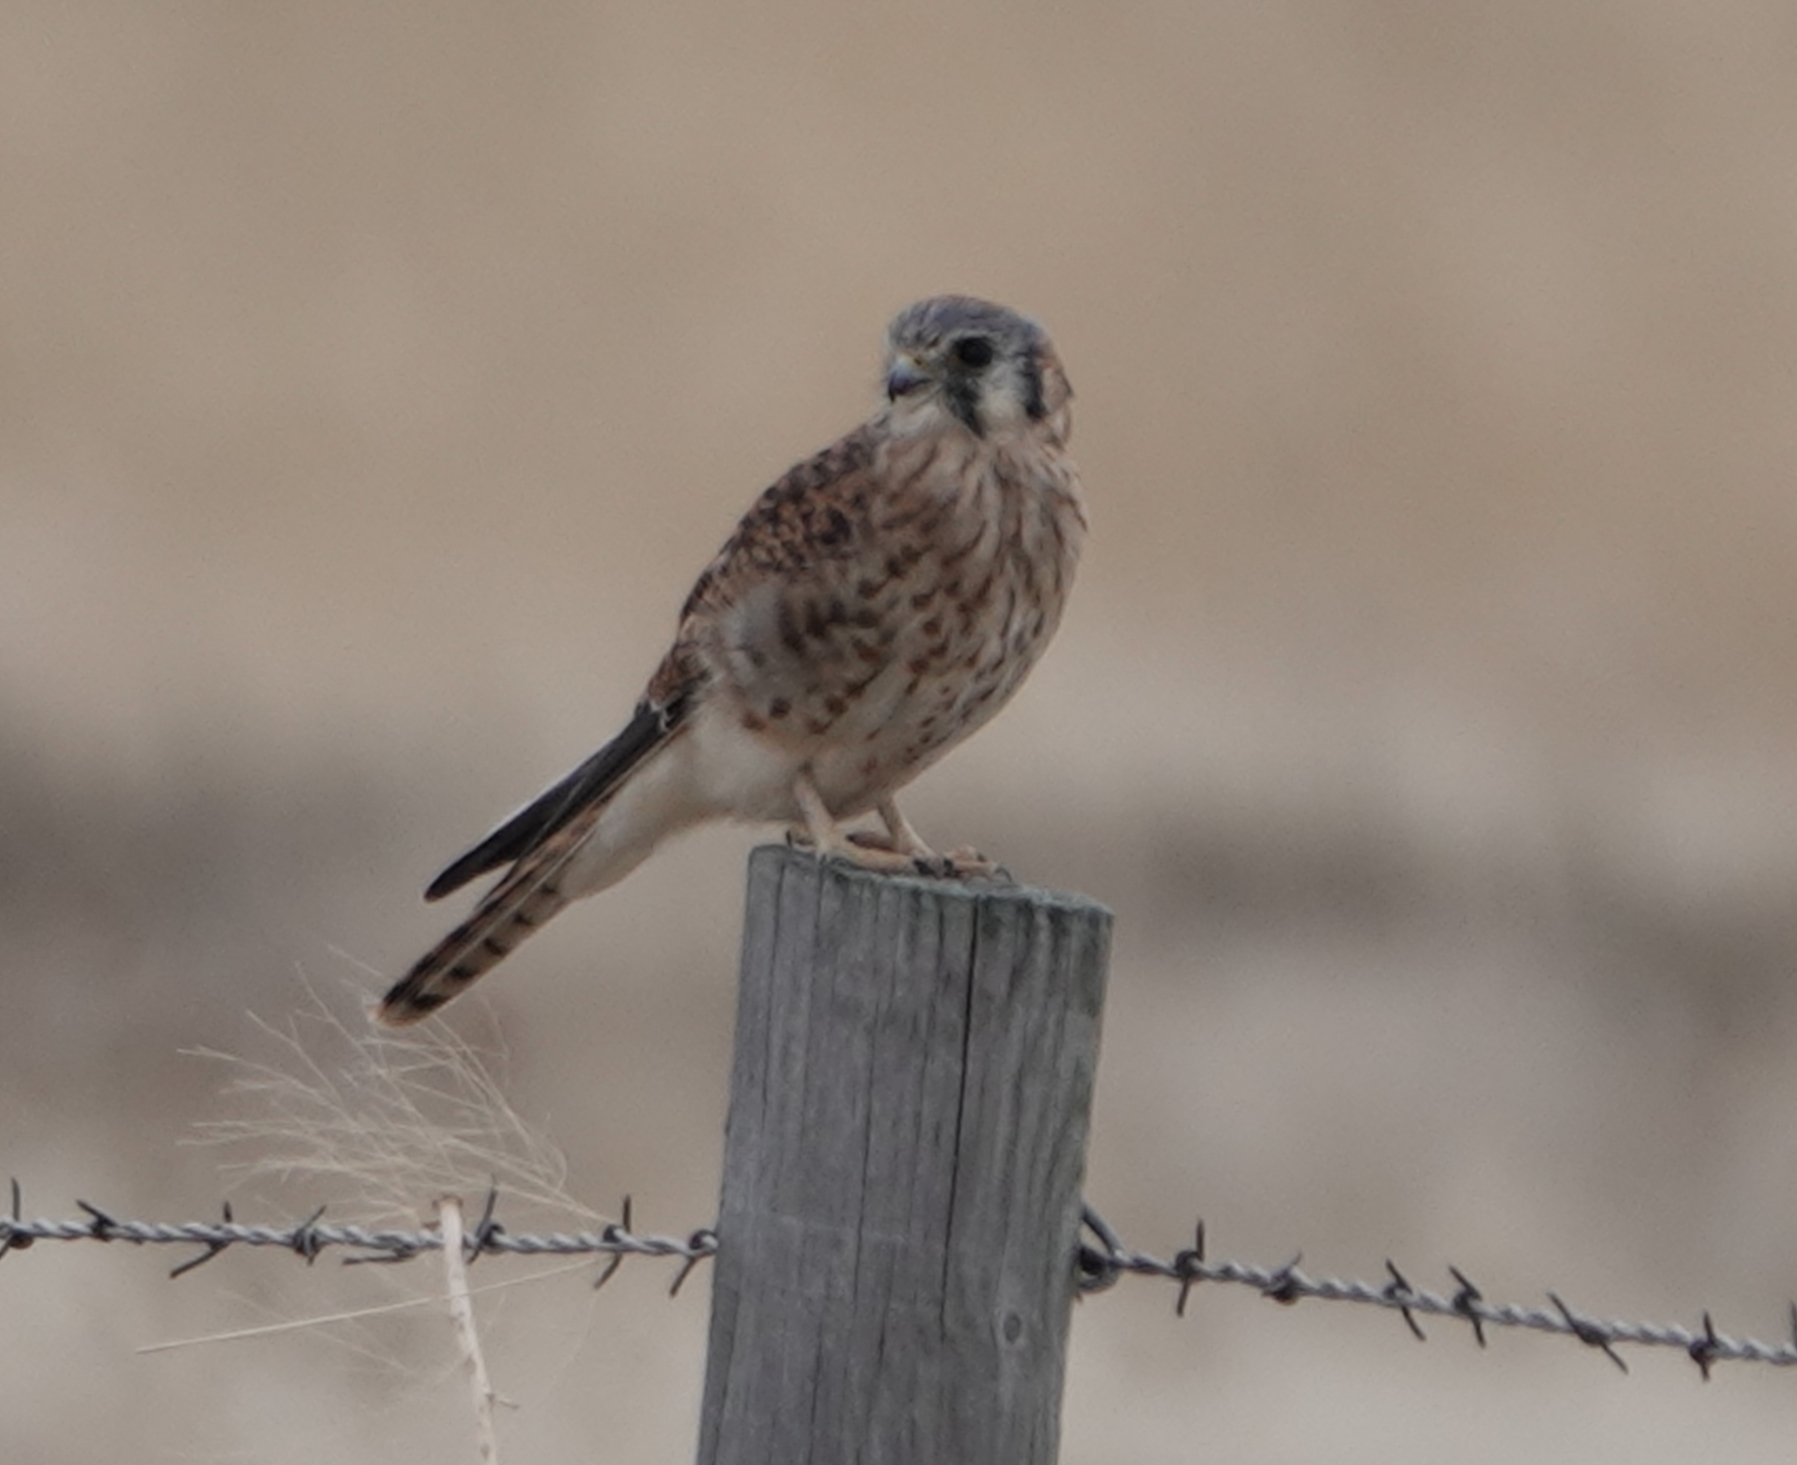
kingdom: Animalia
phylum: Chordata
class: Aves
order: Falconiformes
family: Falconidae
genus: Falco
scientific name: Falco sparverius
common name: American kestrel
